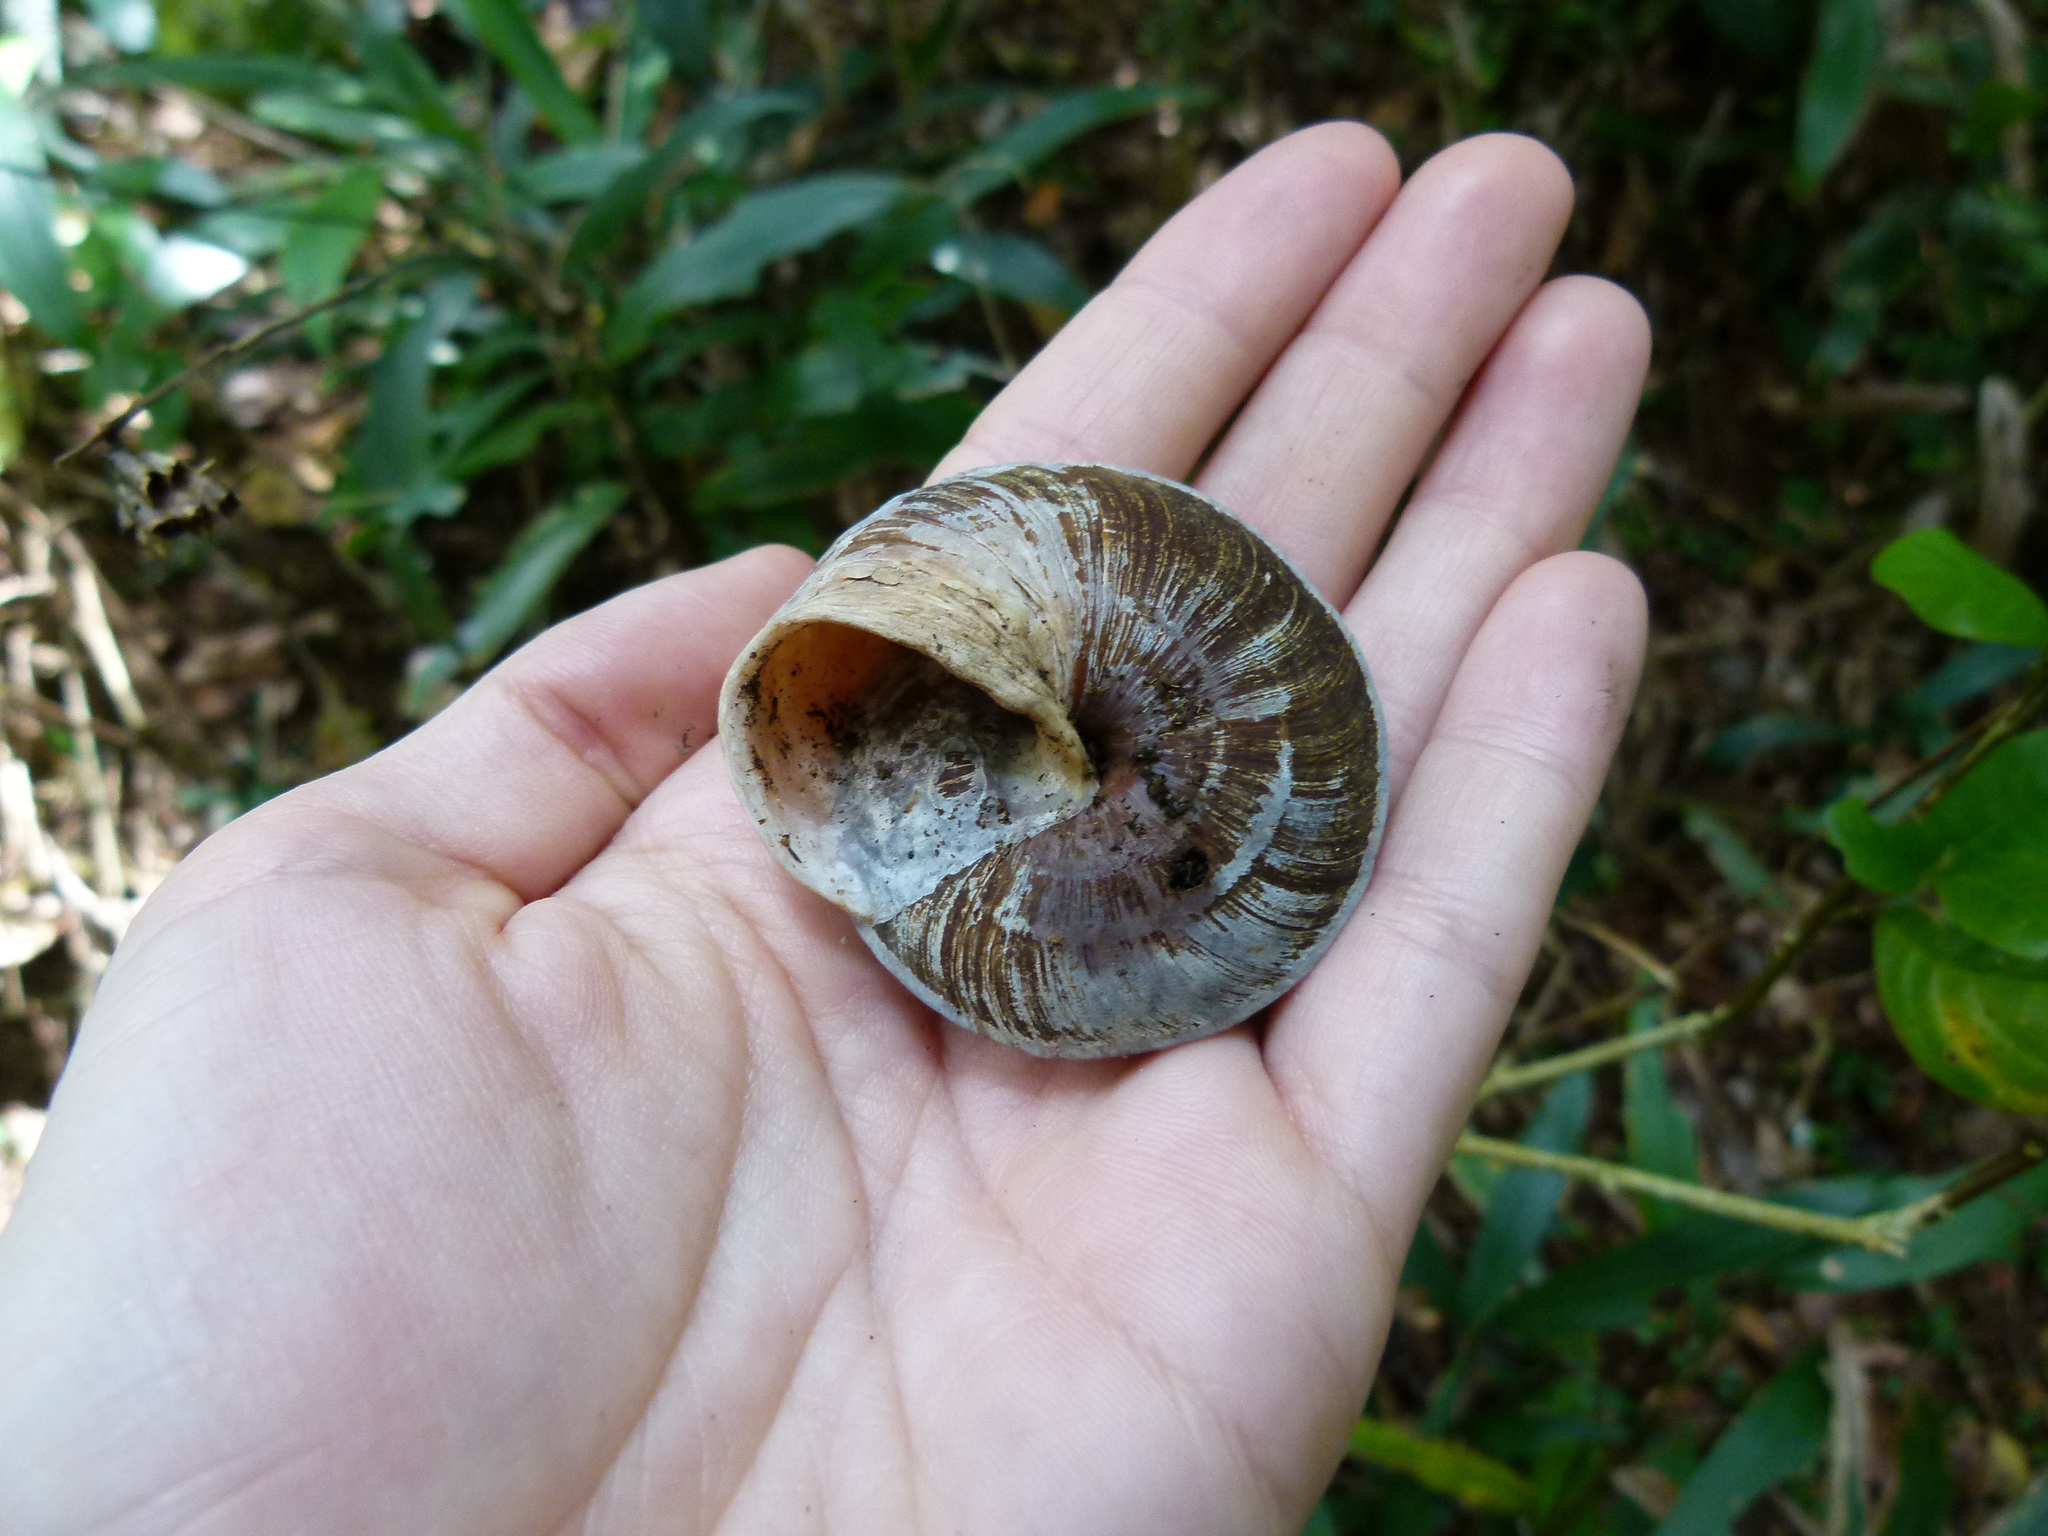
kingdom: Animalia
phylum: Mollusca
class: Gastropoda
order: Stylommatophora
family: Solaropsidae
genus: Caracolus
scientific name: Caracolus carocolla
